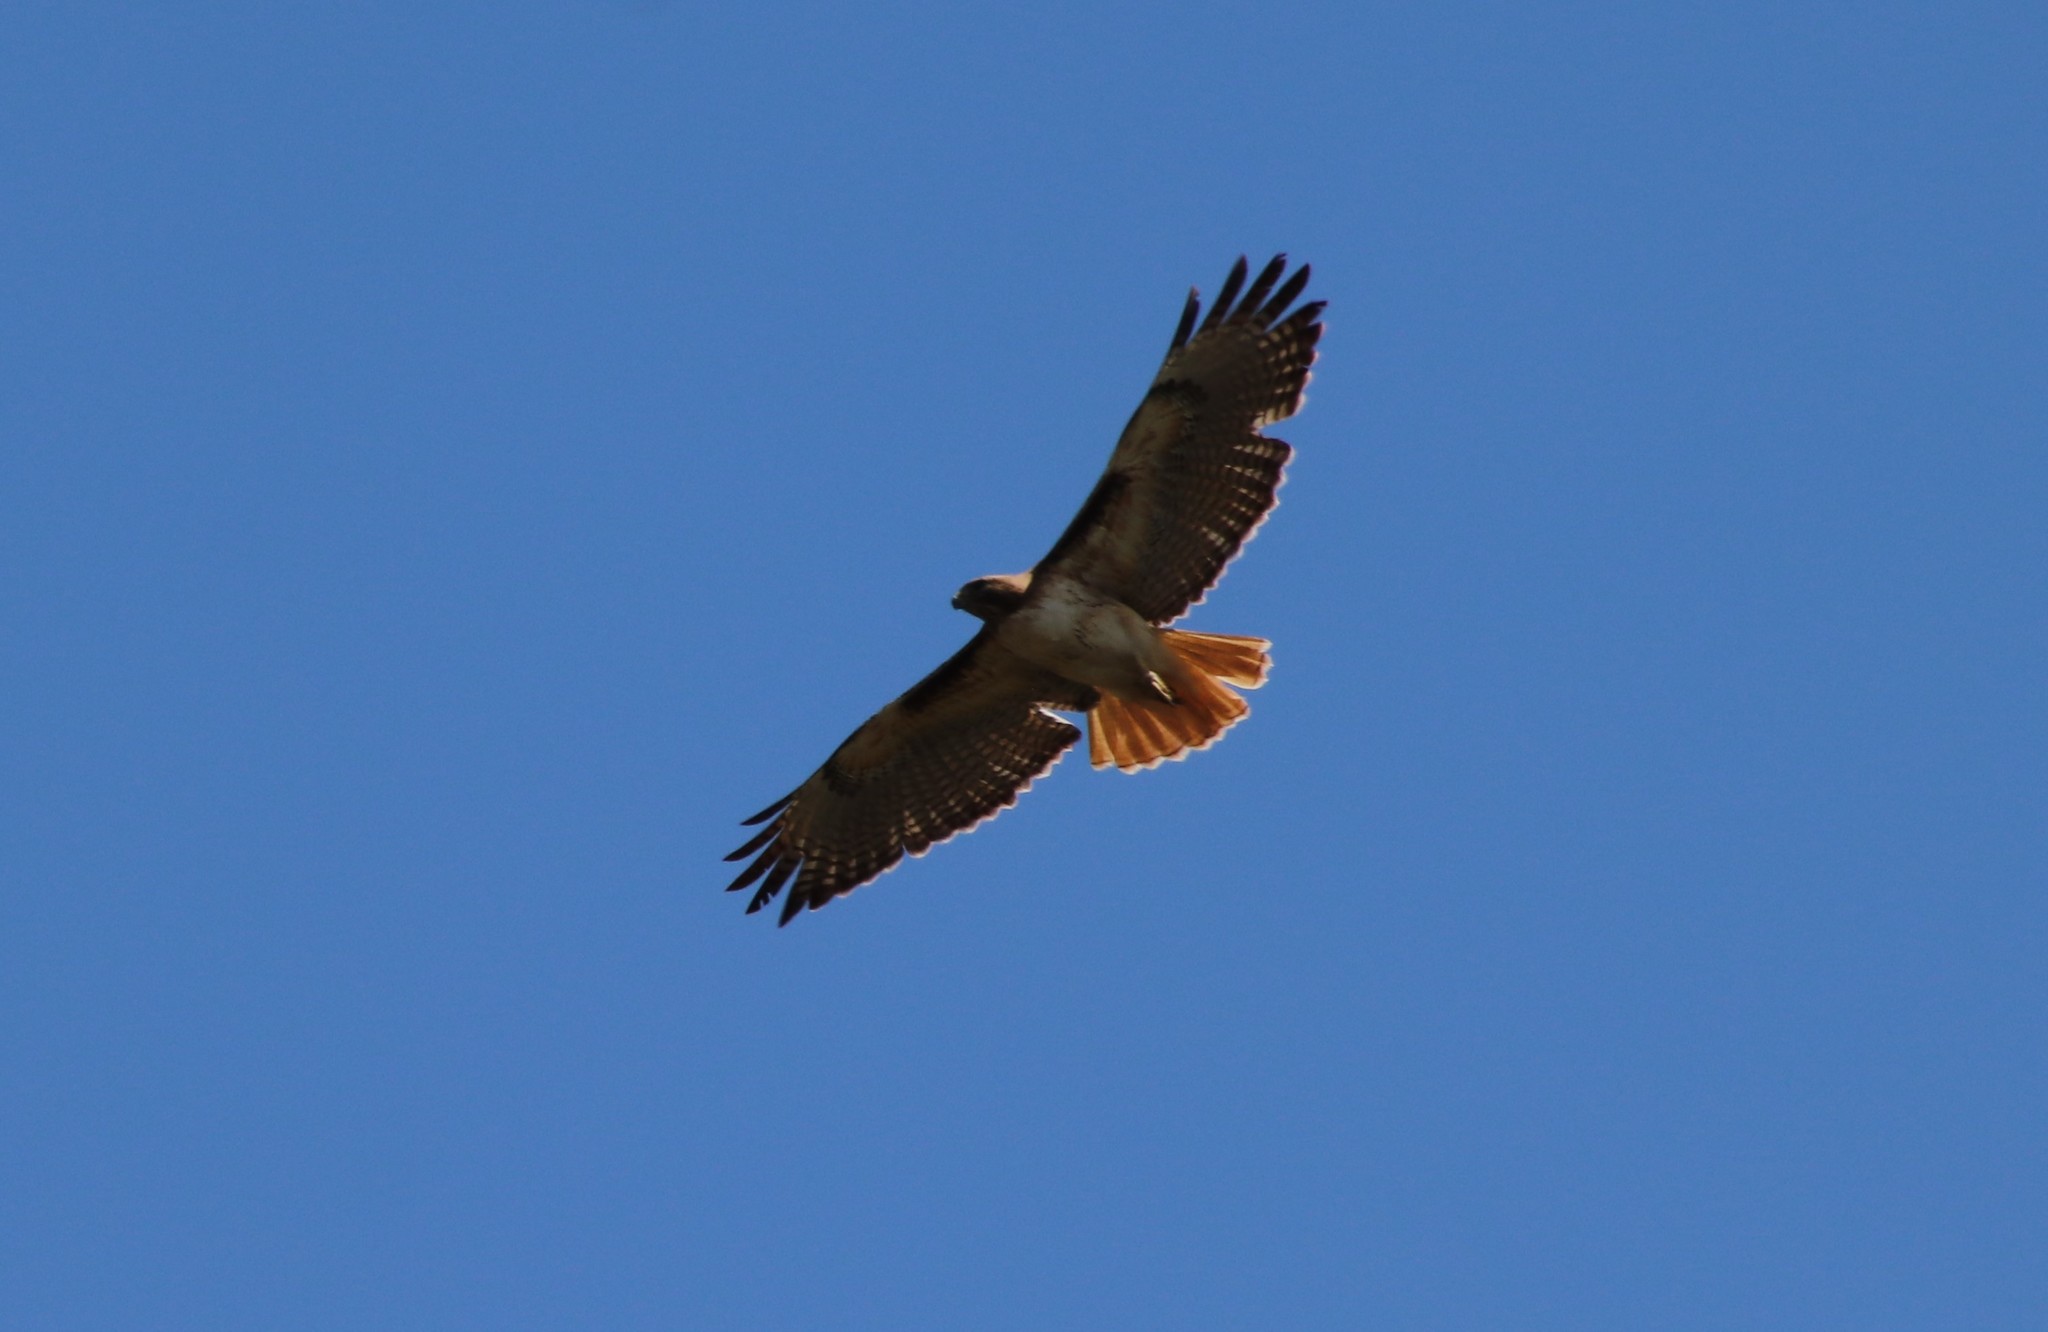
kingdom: Animalia
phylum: Chordata
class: Aves
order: Accipitriformes
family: Accipitridae
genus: Buteo
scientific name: Buteo jamaicensis
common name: Red-tailed hawk
